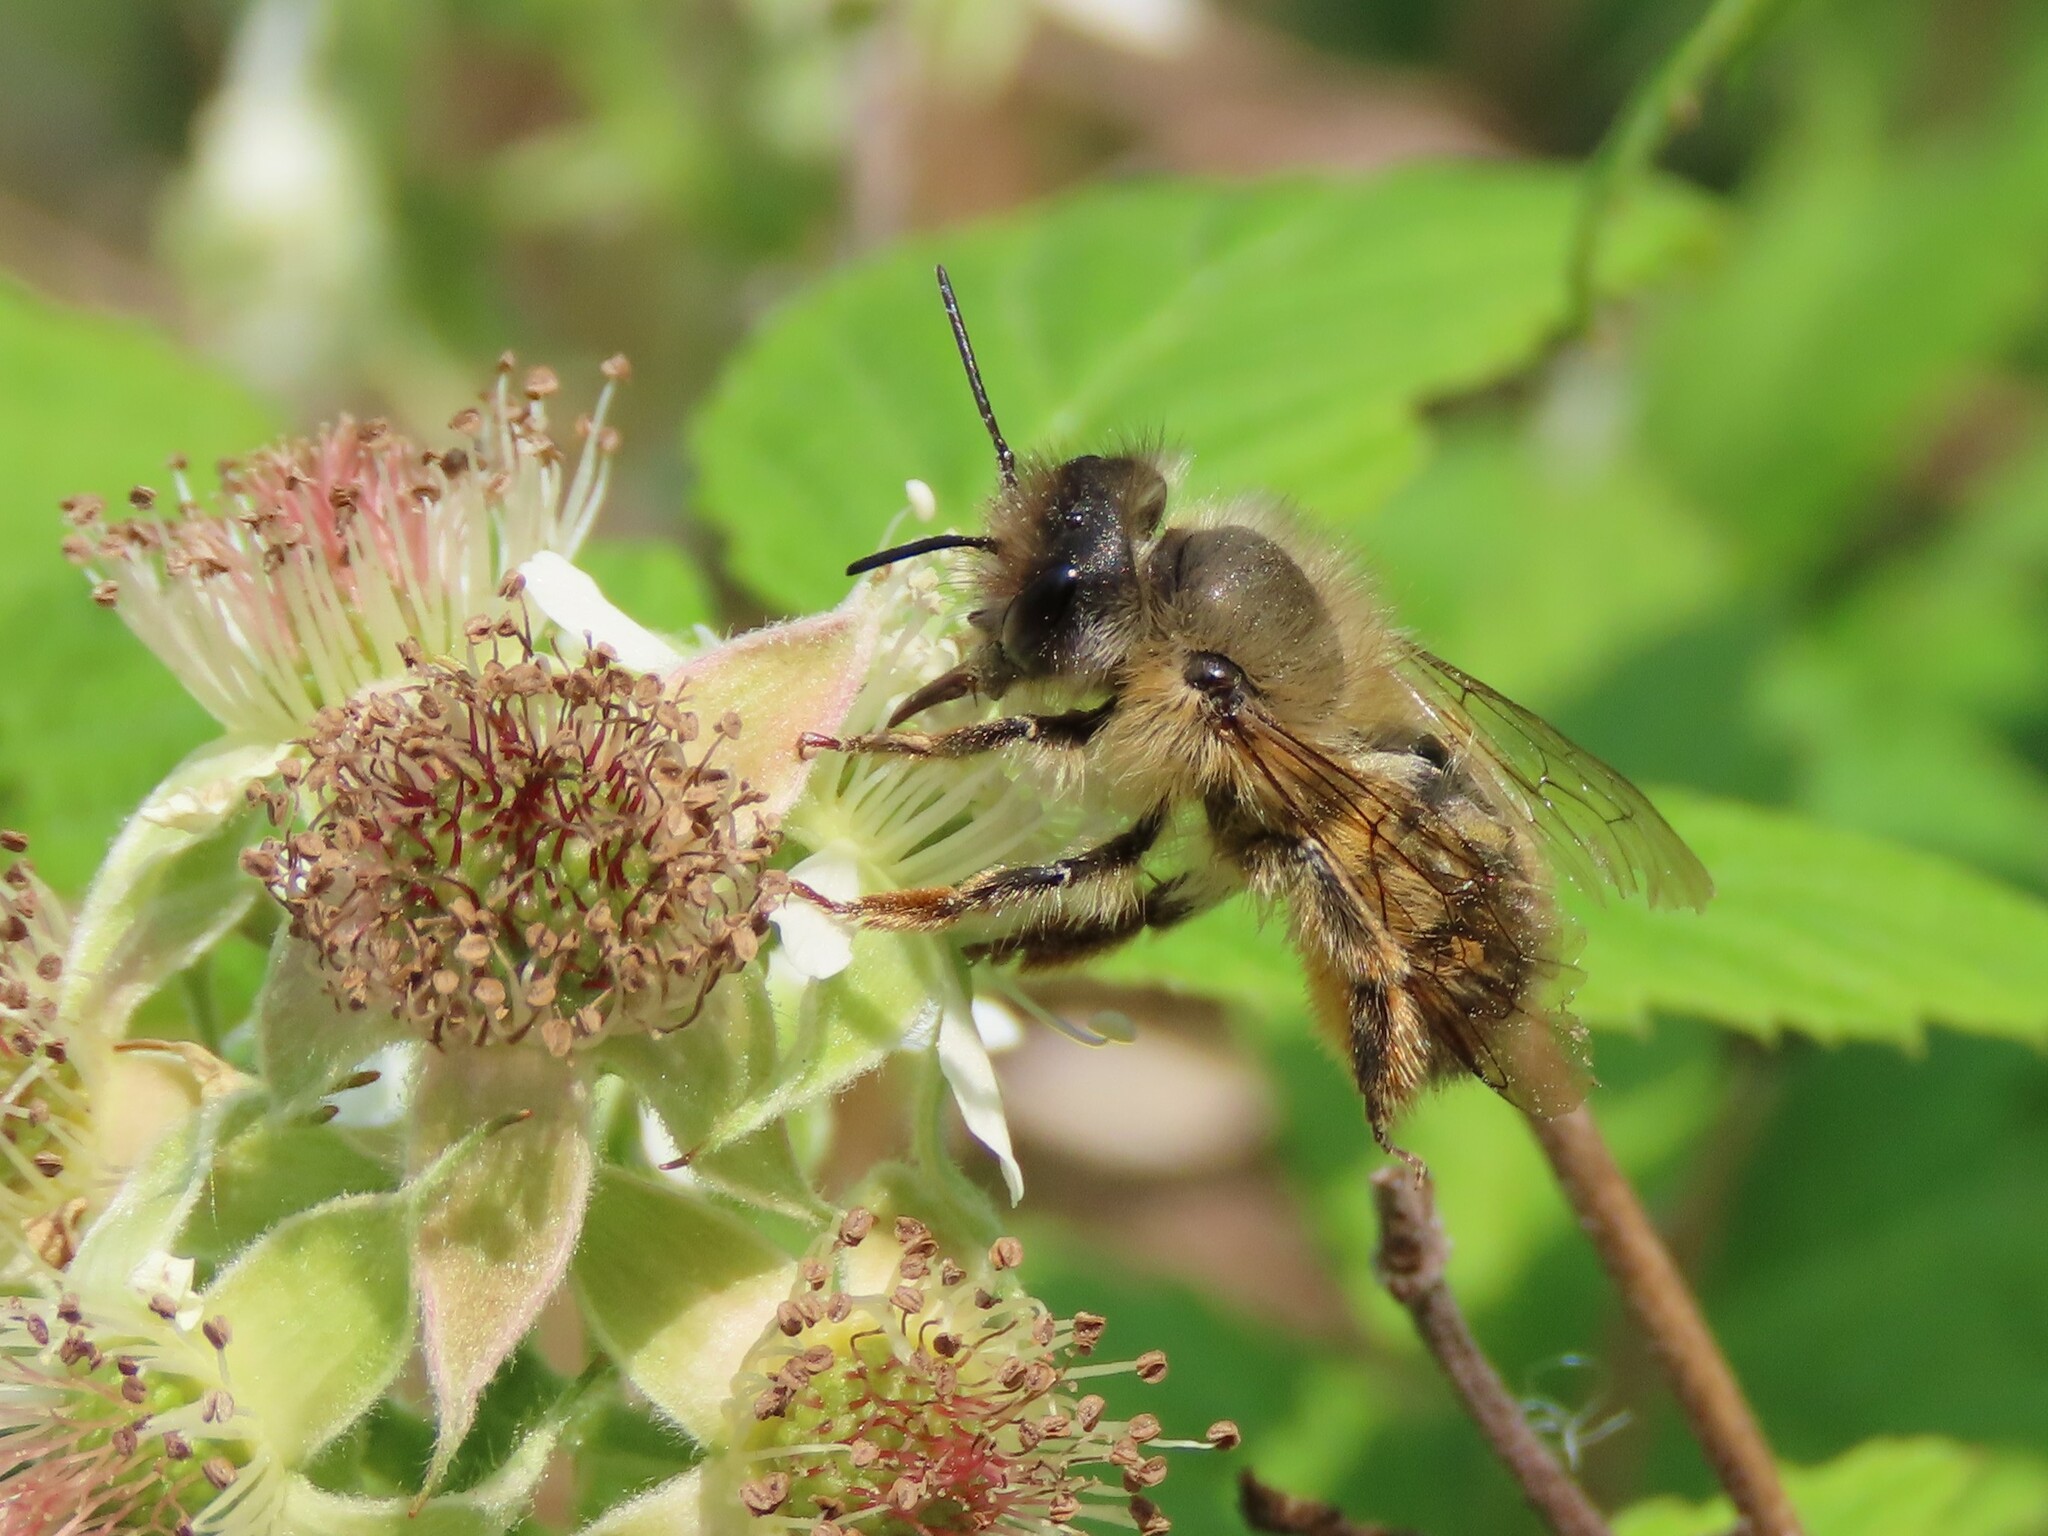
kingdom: Animalia
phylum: Arthropoda
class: Insecta
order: Hymenoptera
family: Megachilidae
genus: Osmia
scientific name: Osmia taurus
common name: Taurus mason bee
